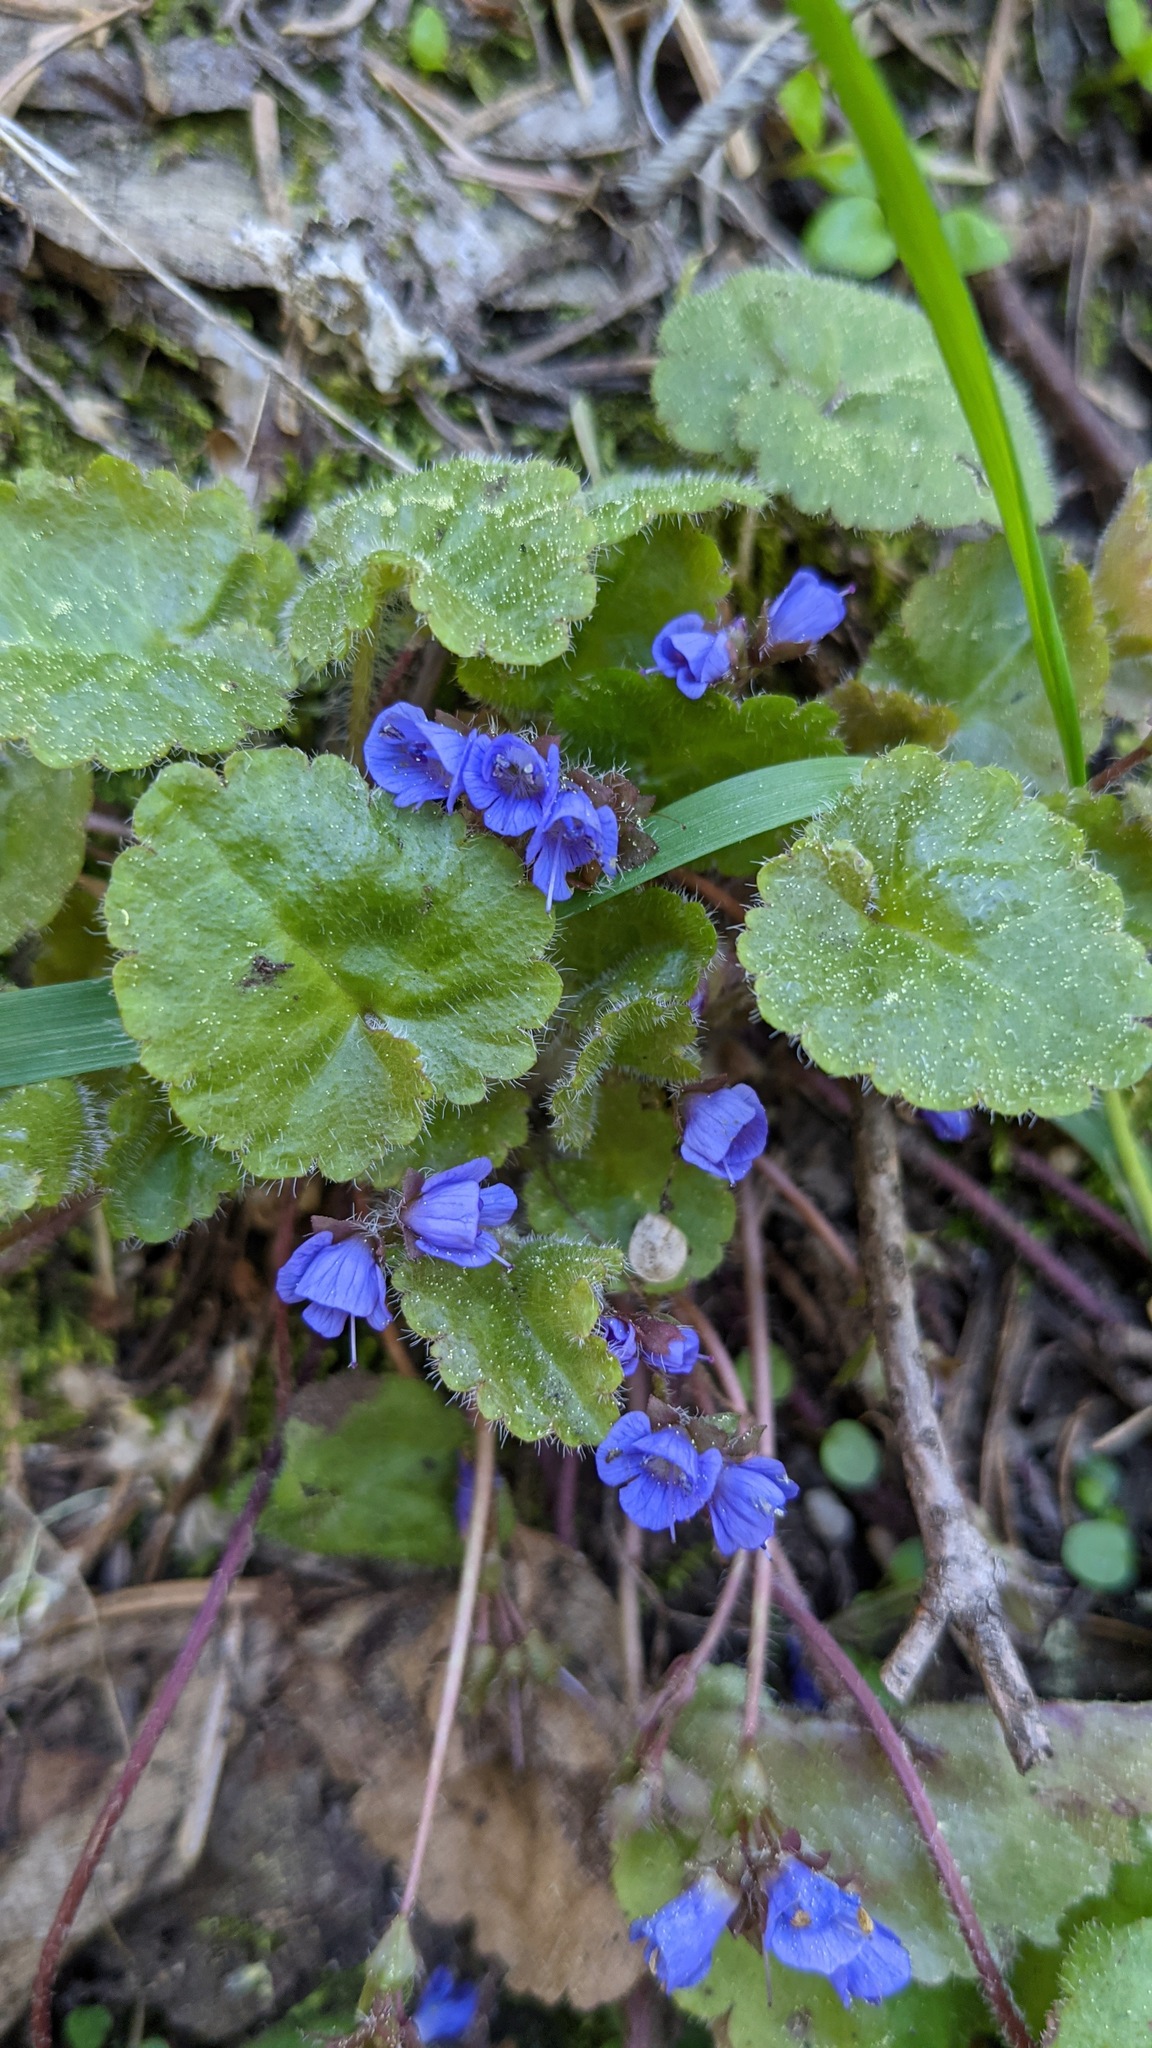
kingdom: Plantae
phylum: Tracheophyta
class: Magnoliopsida
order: Lamiales
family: Plantaginaceae
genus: Synthyris
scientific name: Synthyris reniformis
